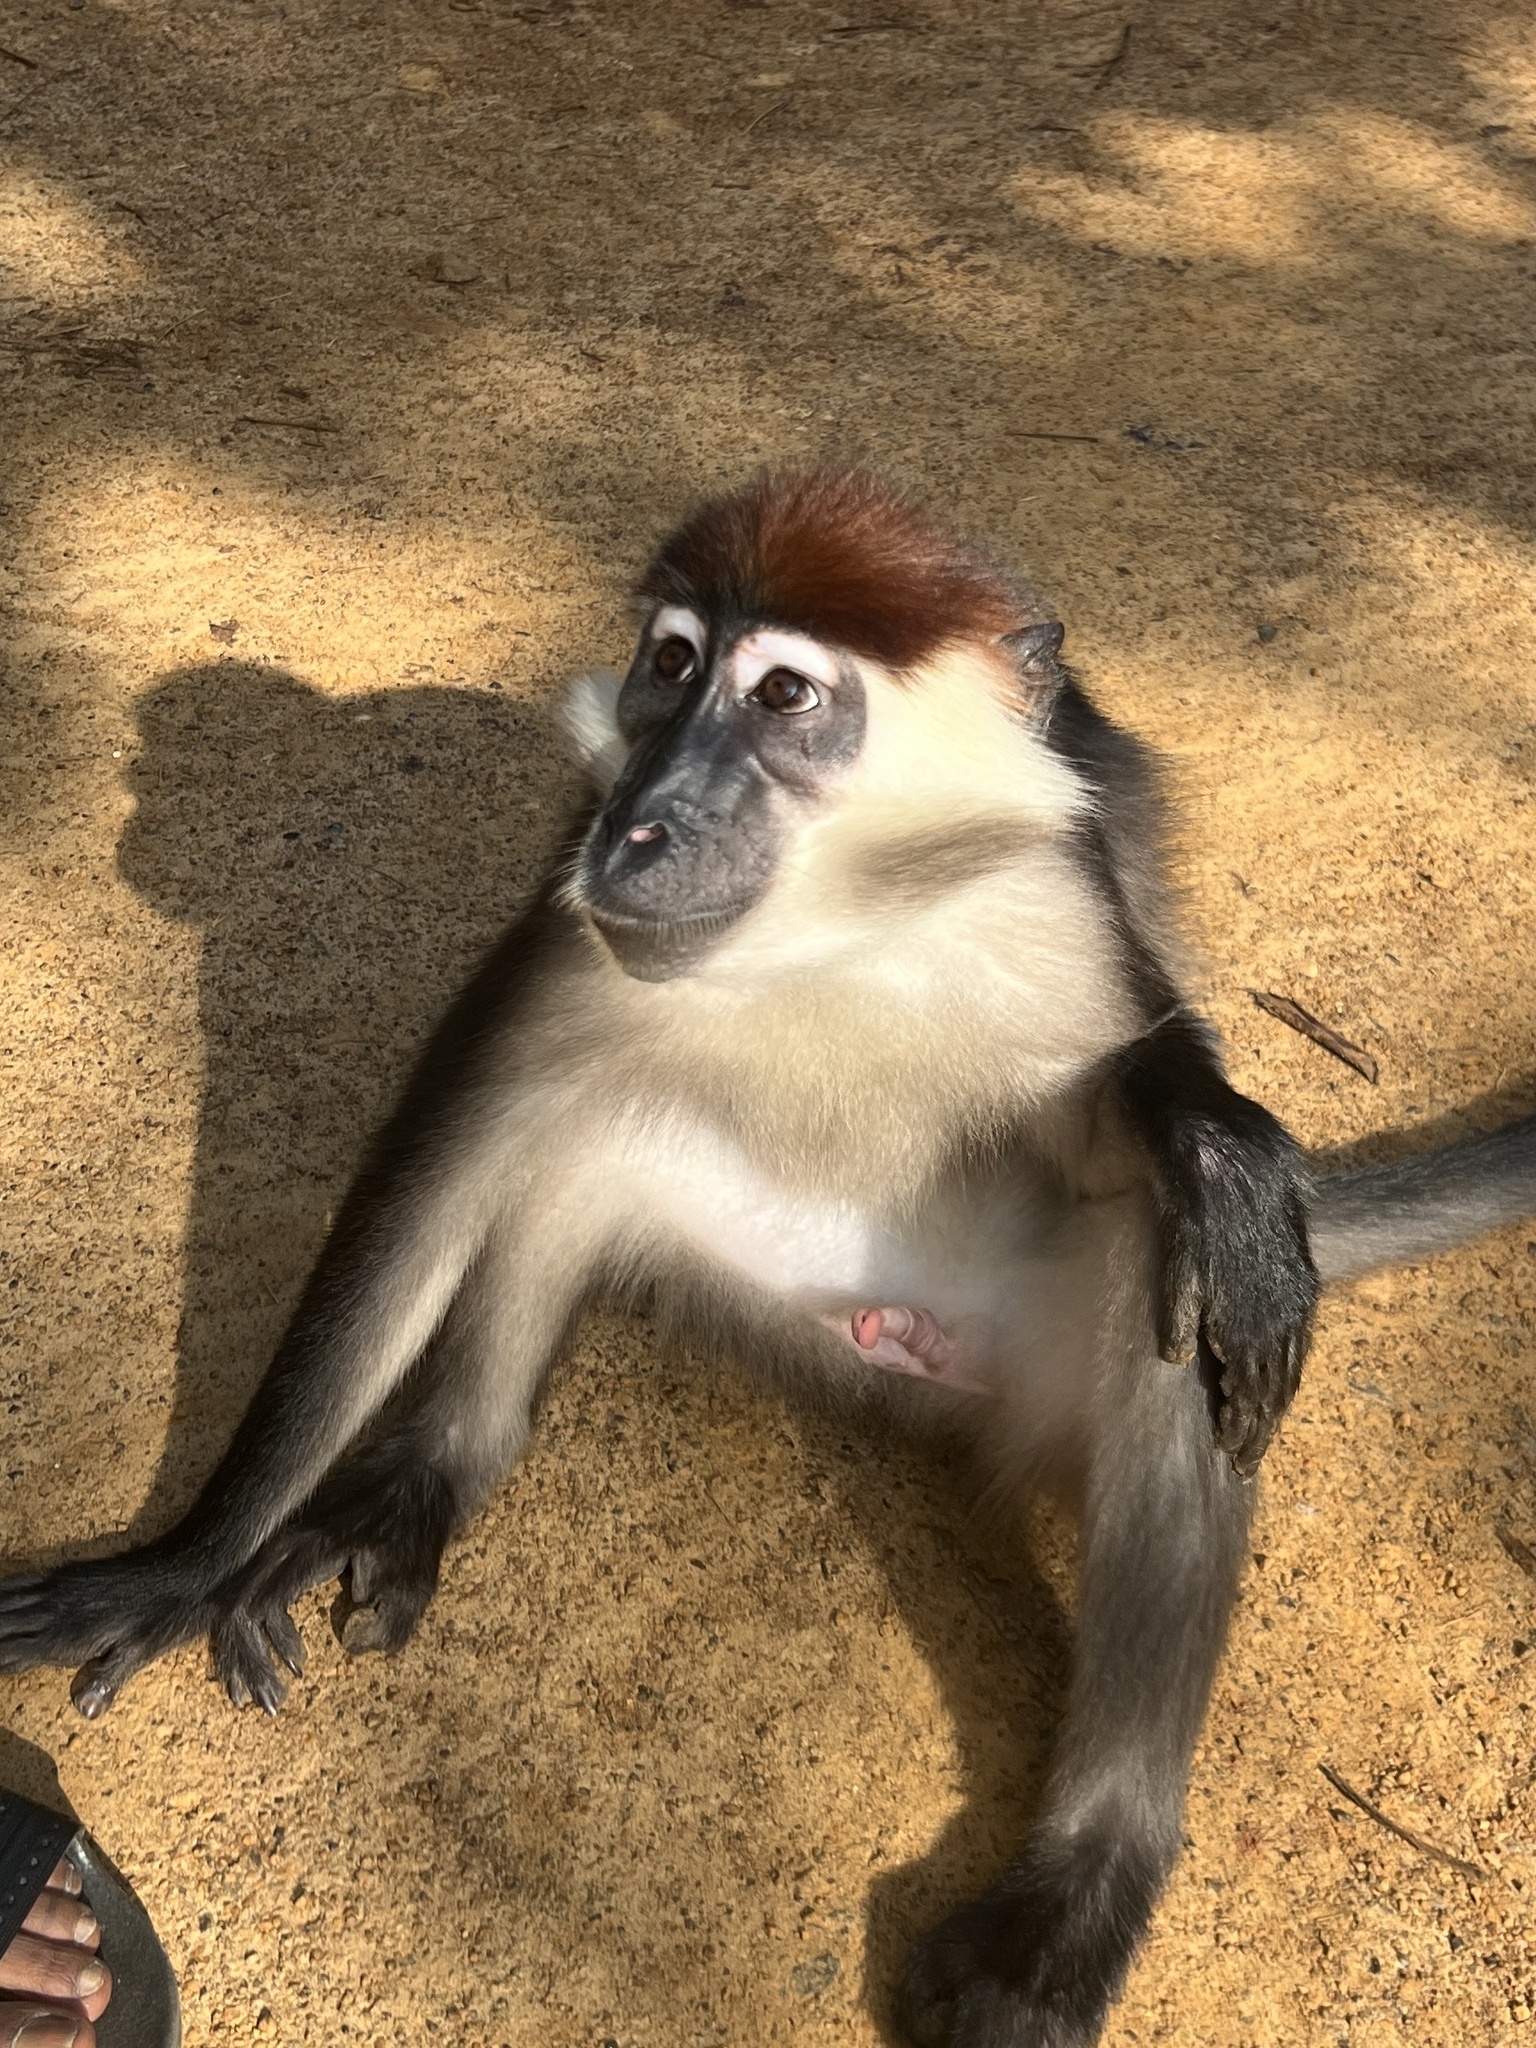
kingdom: Animalia
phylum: Chordata
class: Mammalia
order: Primates
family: Cercopithecidae
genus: Cercocebus
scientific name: Cercocebus torquatus
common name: Collared mangabey
